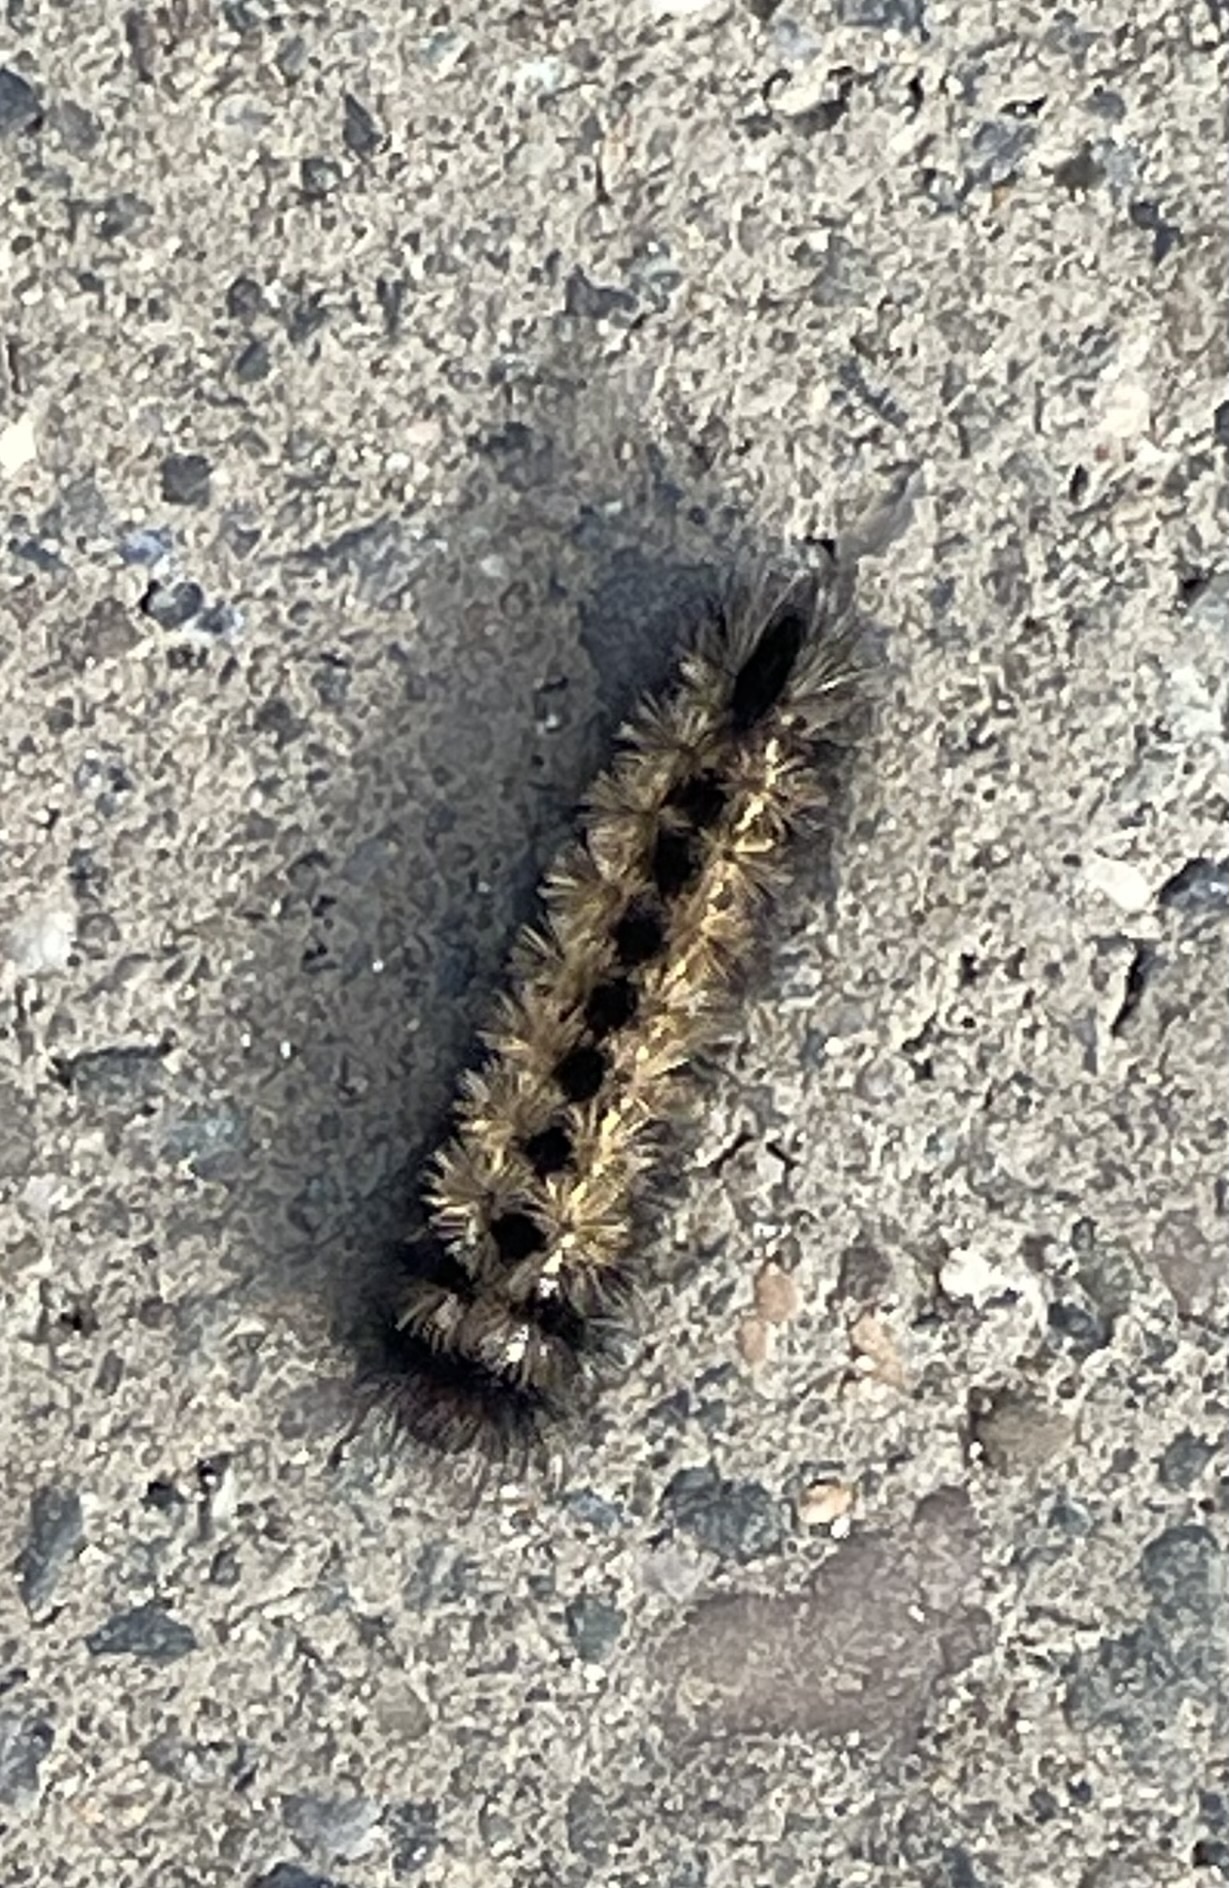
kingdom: Animalia
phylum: Arthropoda
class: Insecta
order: Lepidoptera
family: Erebidae
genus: Ctenucha
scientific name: Ctenucha virginica
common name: Virginia ctenucha moth
